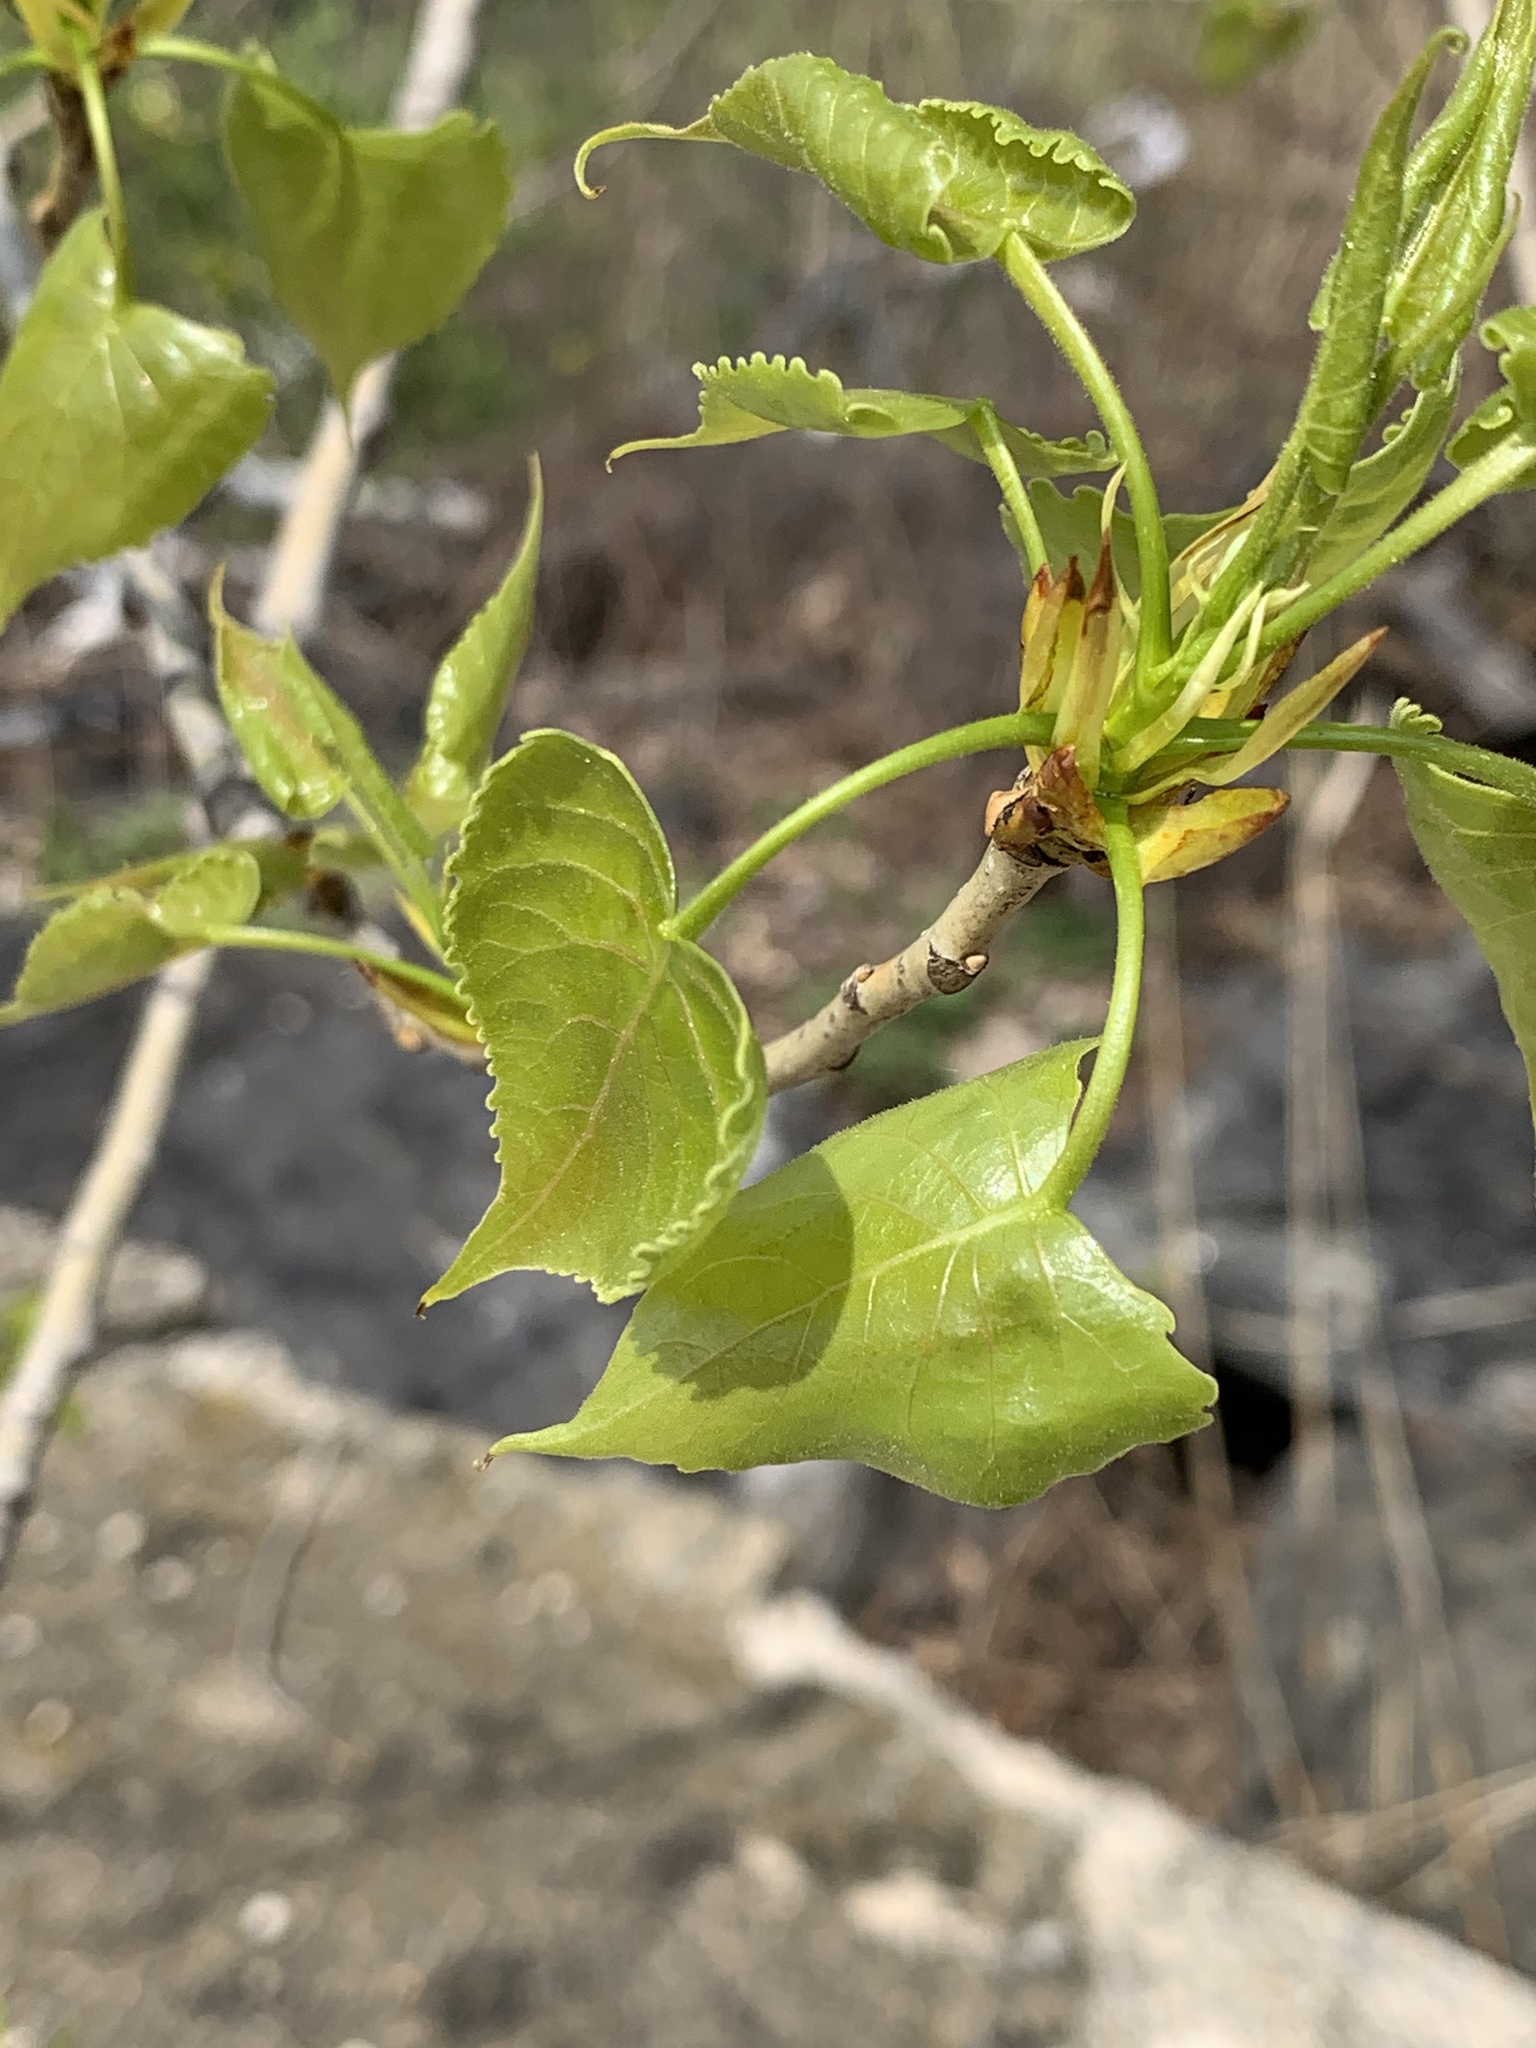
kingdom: Plantae
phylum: Tracheophyta
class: Magnoliopsida
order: Malpighiales
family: Salicaceae
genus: Populus
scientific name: Populus deltoides
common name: Eastern cottonwood
